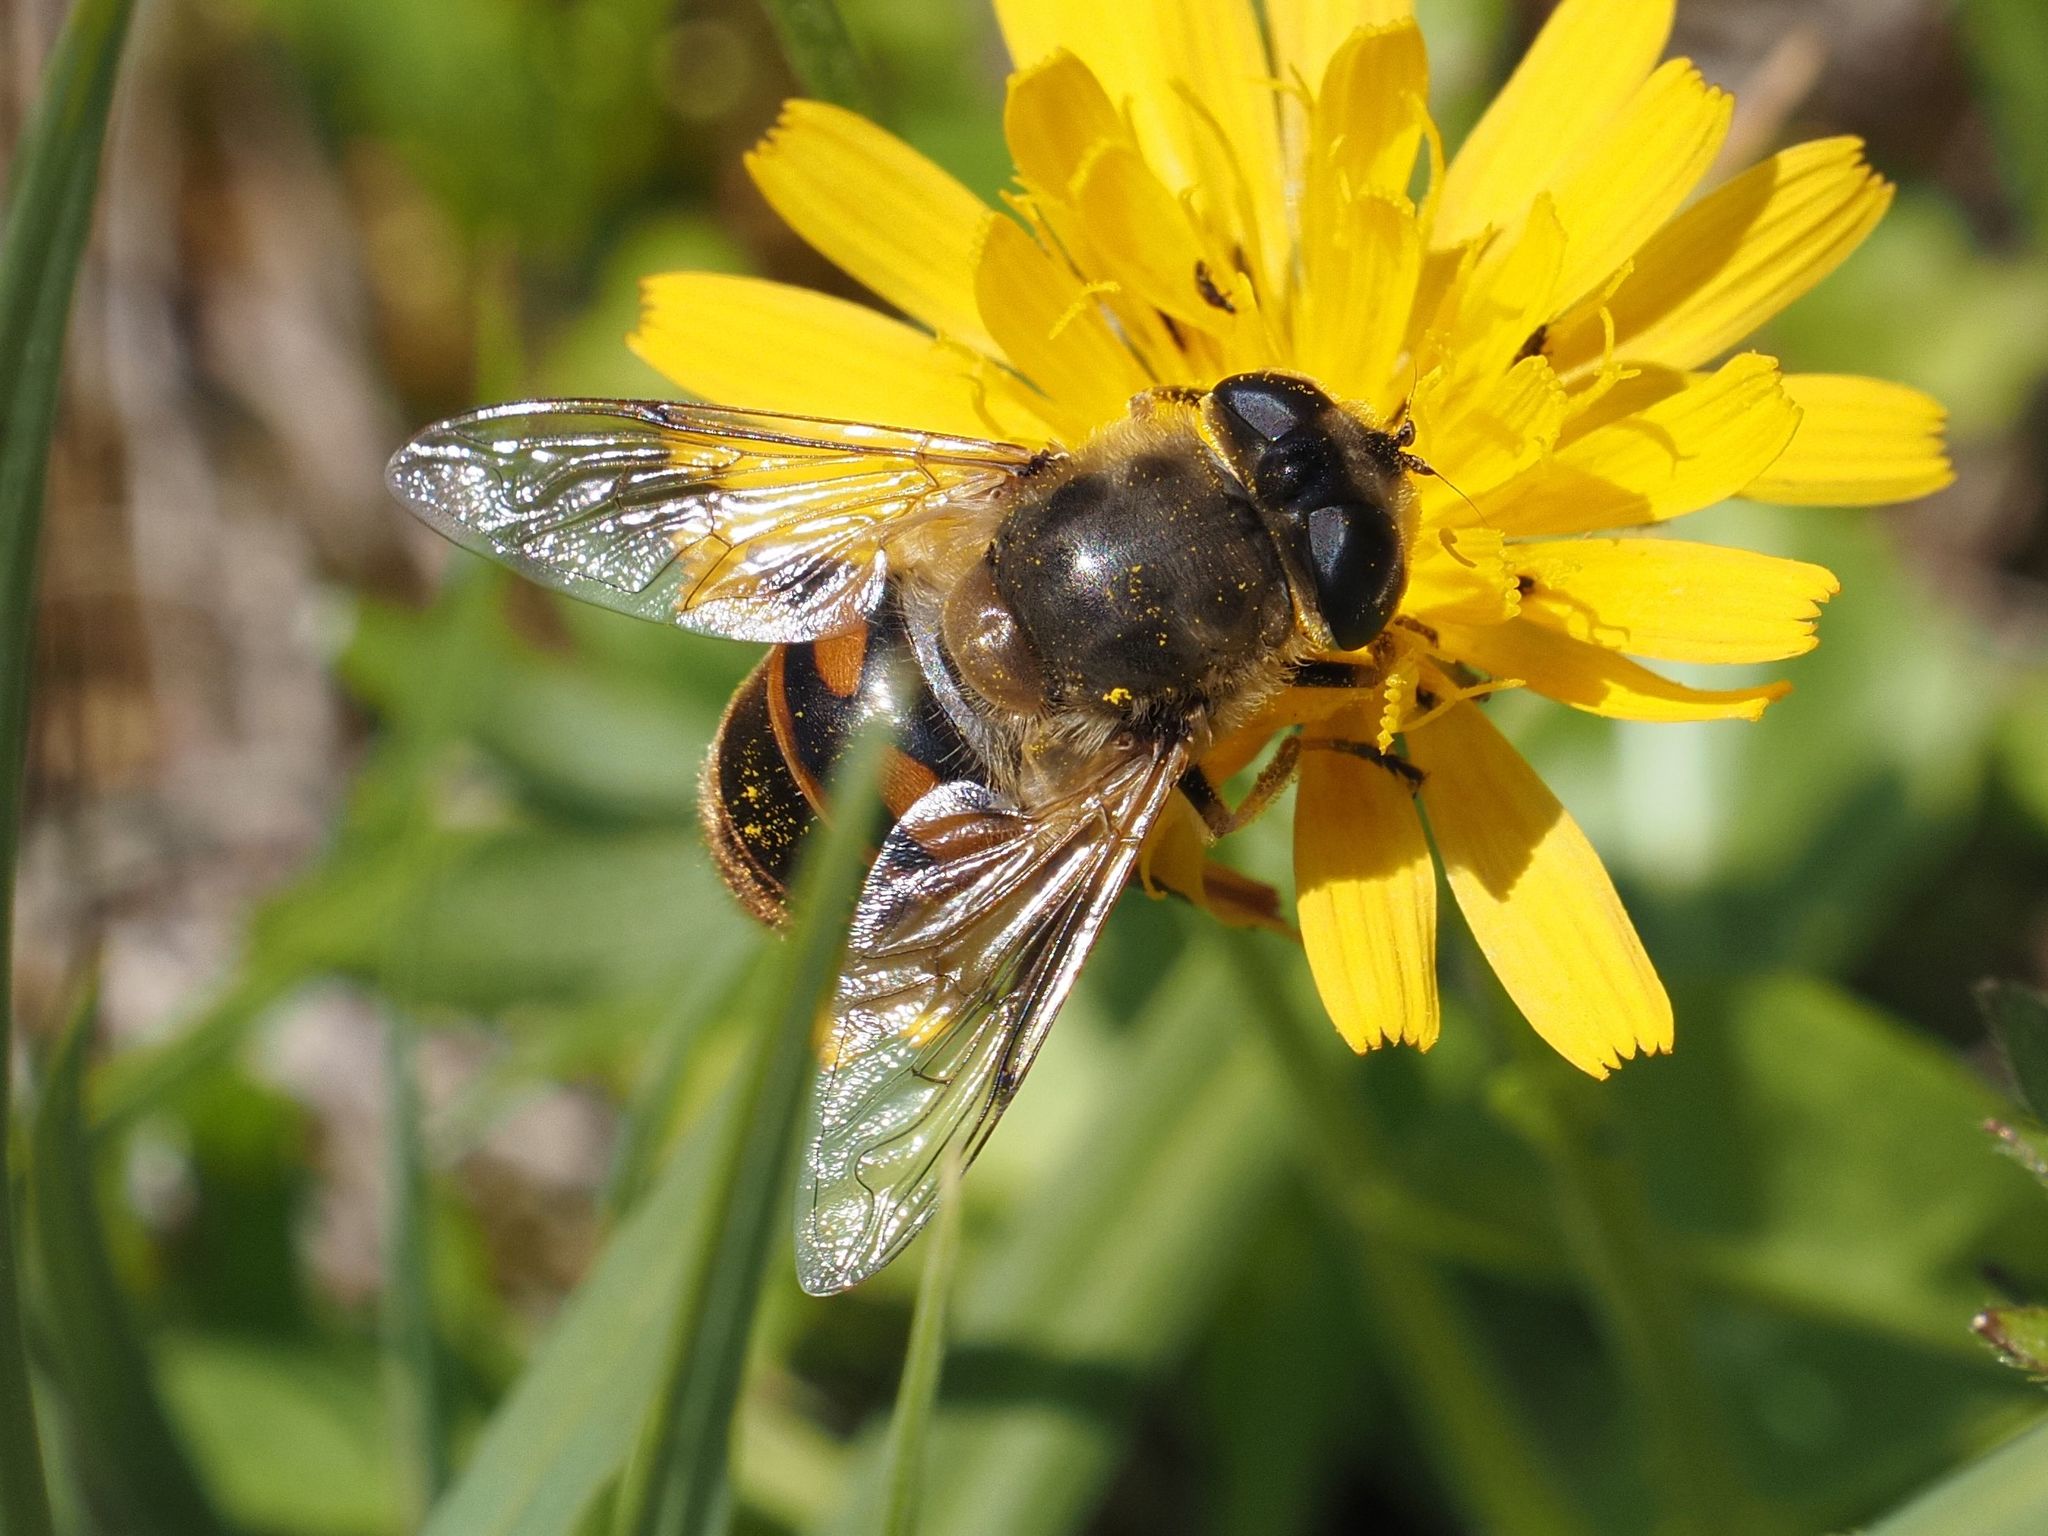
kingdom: Animalia
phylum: Arthropoda
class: Insecta
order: Diptera
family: Syrphidae
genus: Eristalis
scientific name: Eristalis tenax
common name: Drone fly
